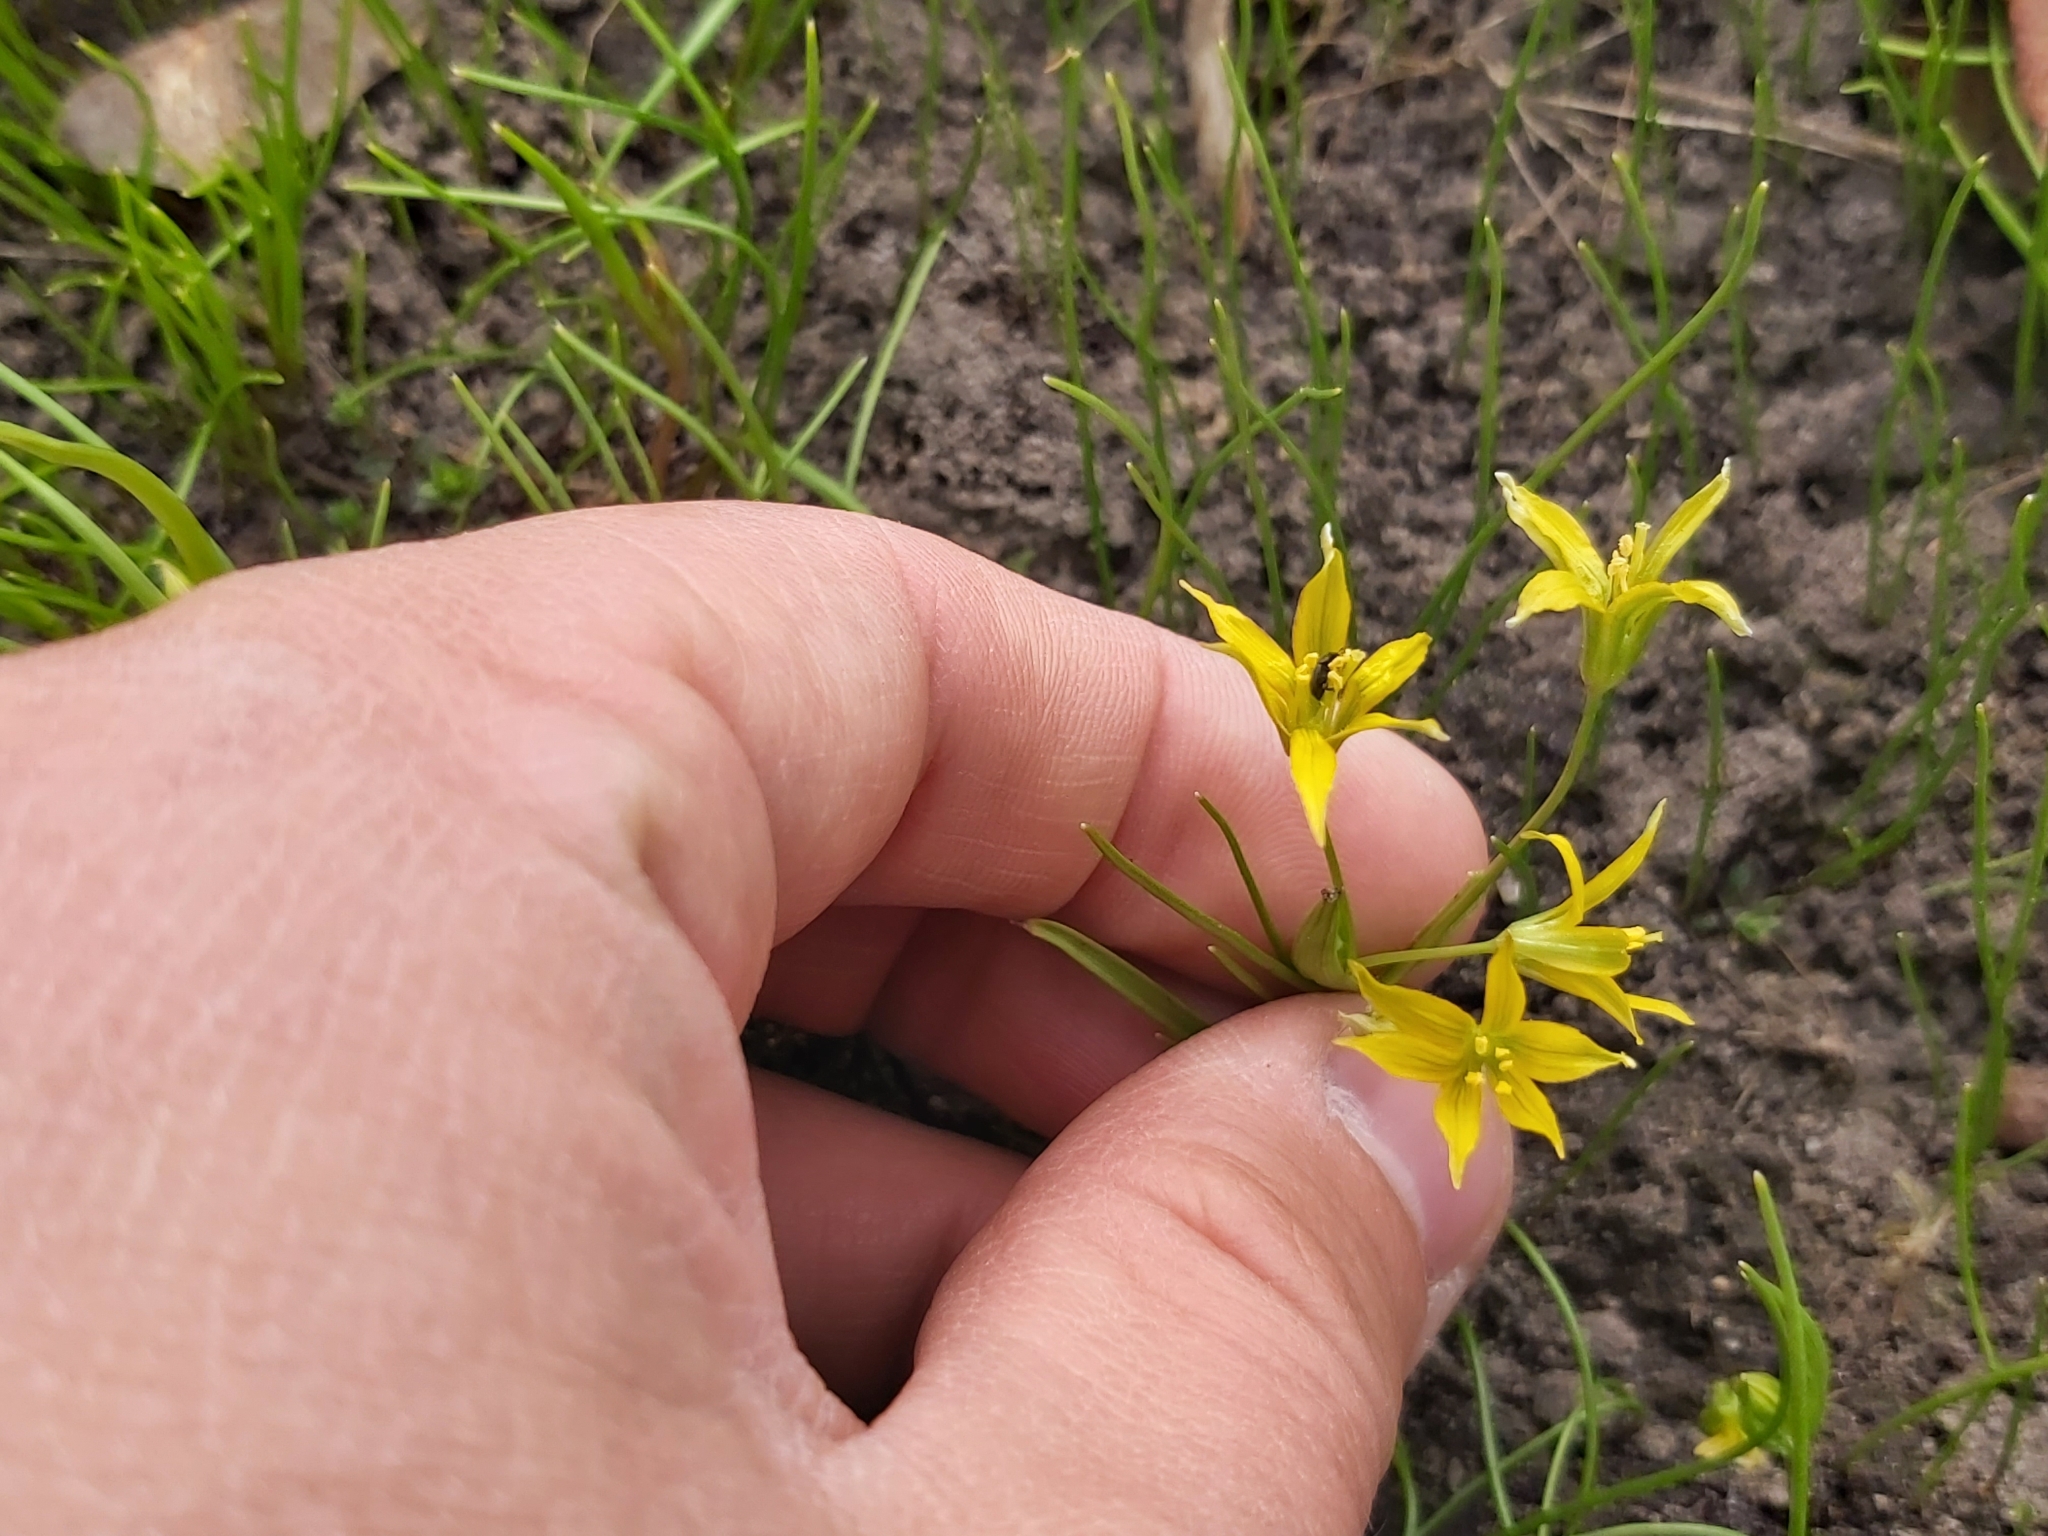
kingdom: Plantae
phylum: Tracheophyta
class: Liliopsida
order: Liliales
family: Liliaceae
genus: Gagea
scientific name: Gagea minima
